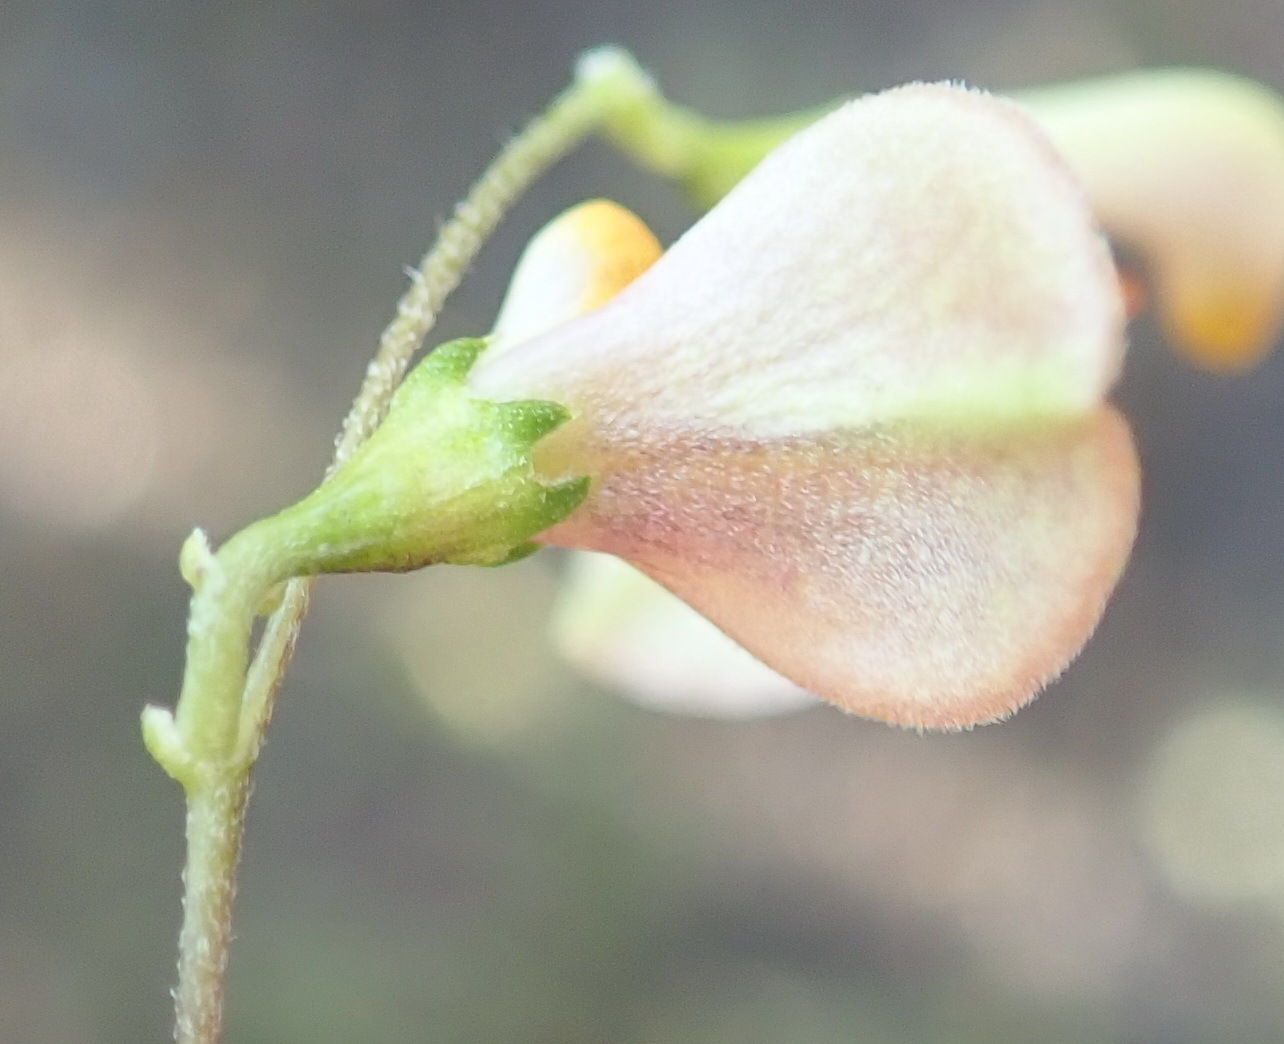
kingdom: Plantae
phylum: Tracheophyta
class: Magnoliopsida
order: Fabales
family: Fabaceae
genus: Aspalathus
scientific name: Aspalathus biflora
